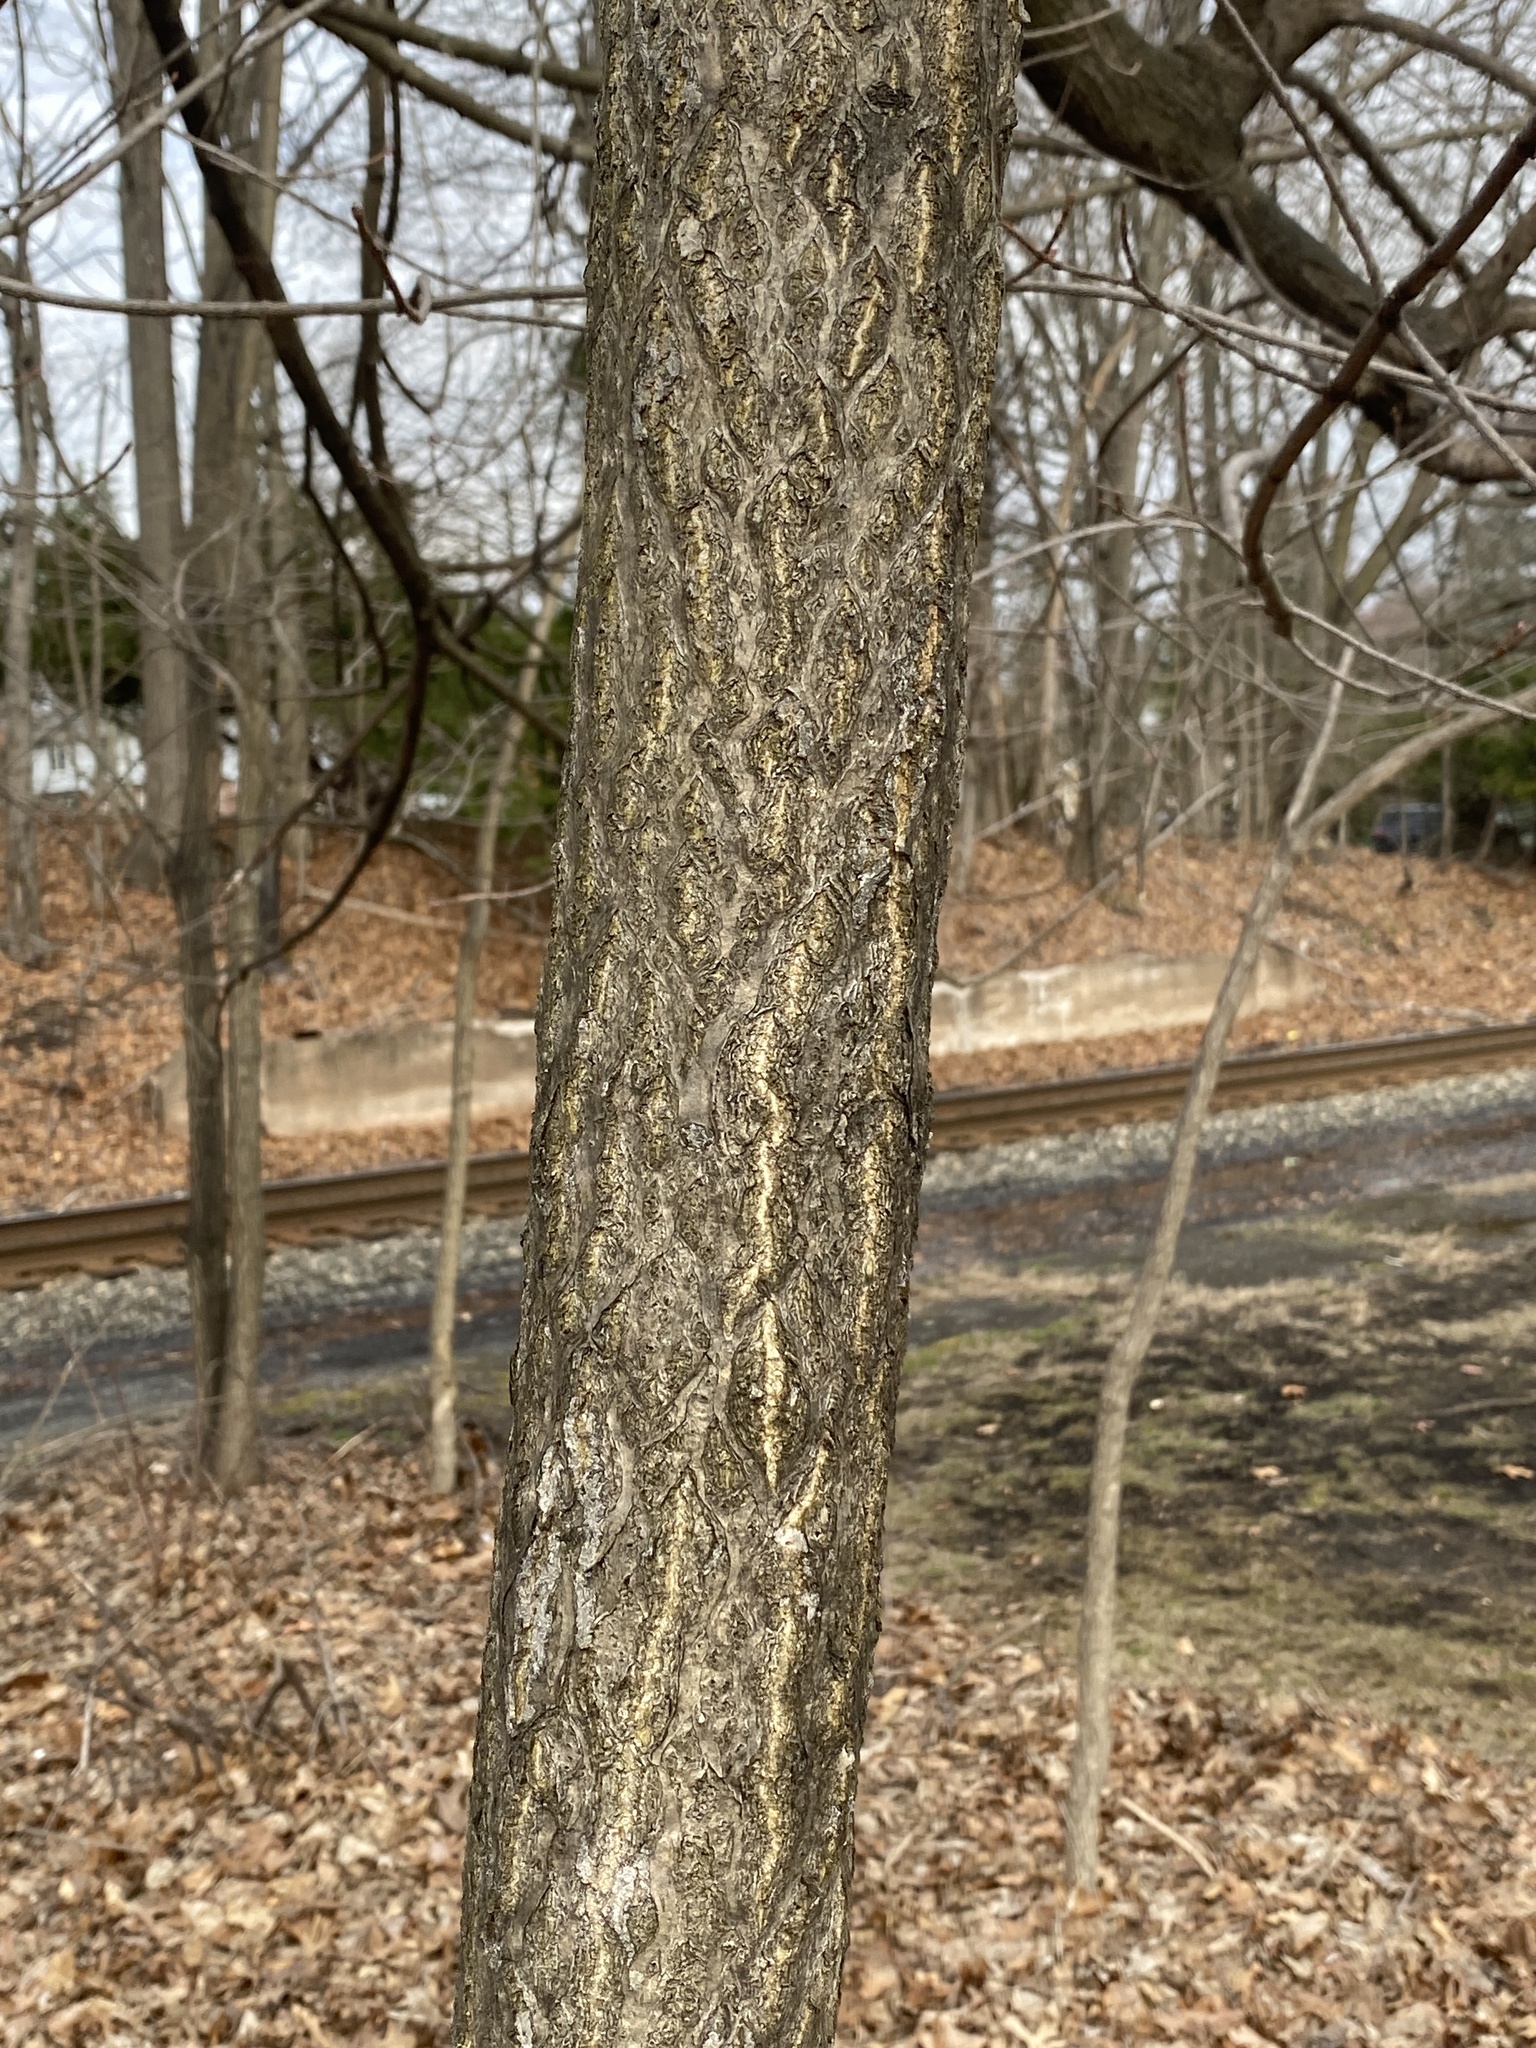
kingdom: Plantae
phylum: Tracheophyta
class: Magnoliopsida
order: Sapindales
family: Simaroubaceae
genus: Ailanthus
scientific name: Ailanthus altissima
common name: Tree-of-heaven
